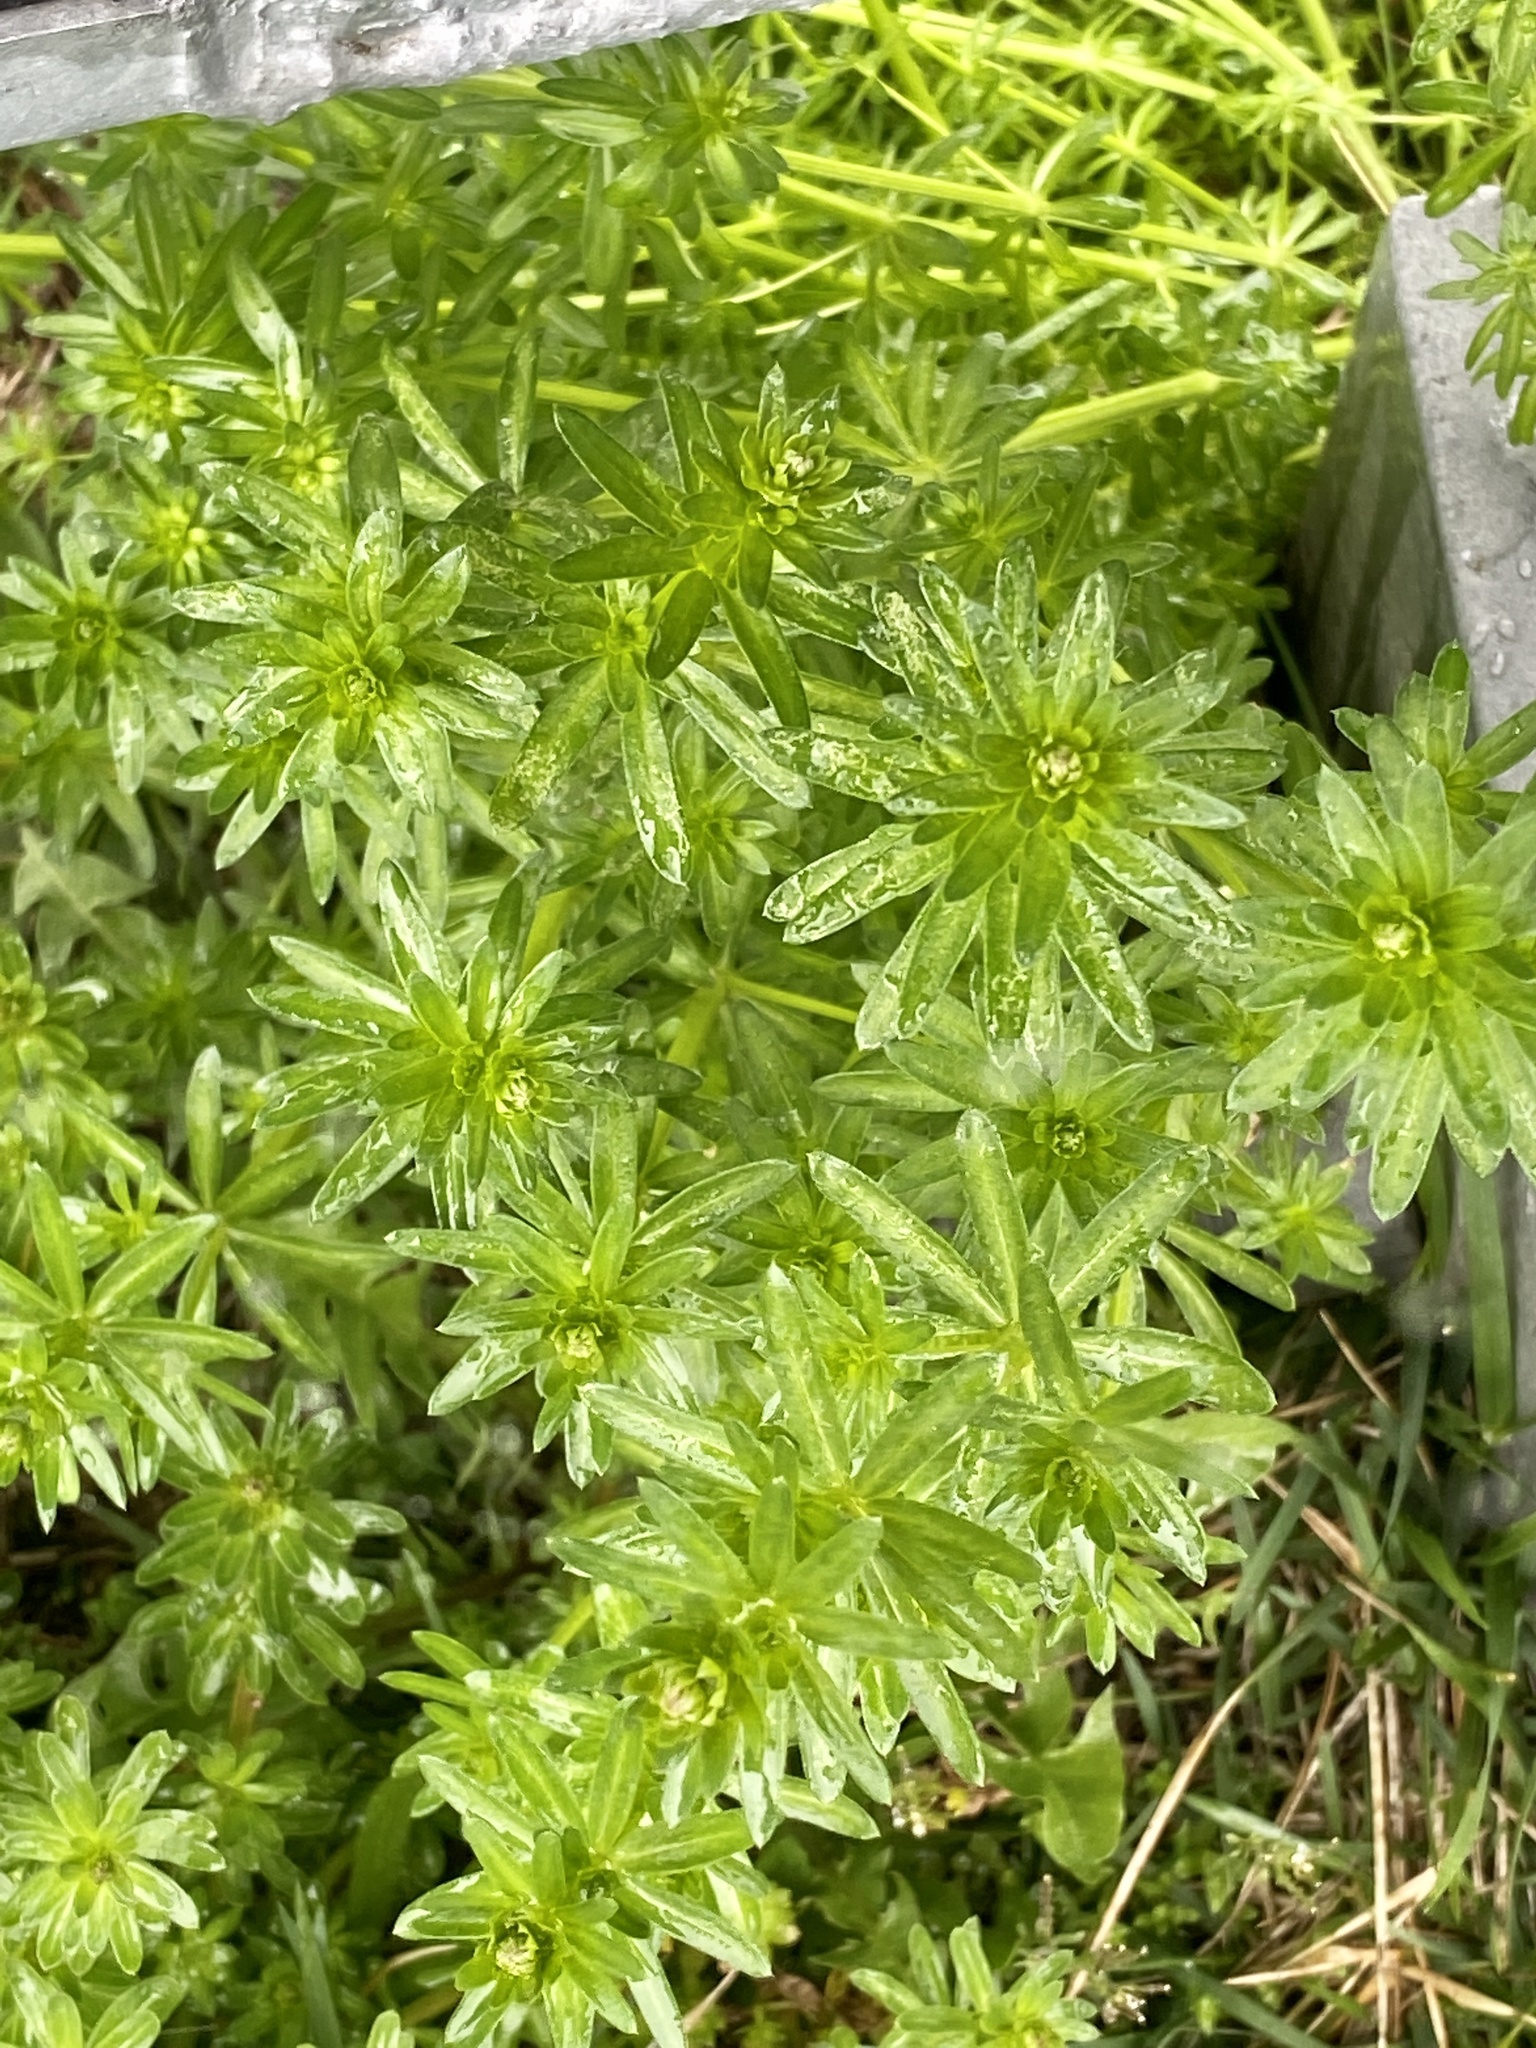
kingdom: Plantae
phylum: Tracheophyta
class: Magnoliopsida
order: Gentianales
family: Rubiaceae
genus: Galium
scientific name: Galium mollugo
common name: Hedge bedstraw
